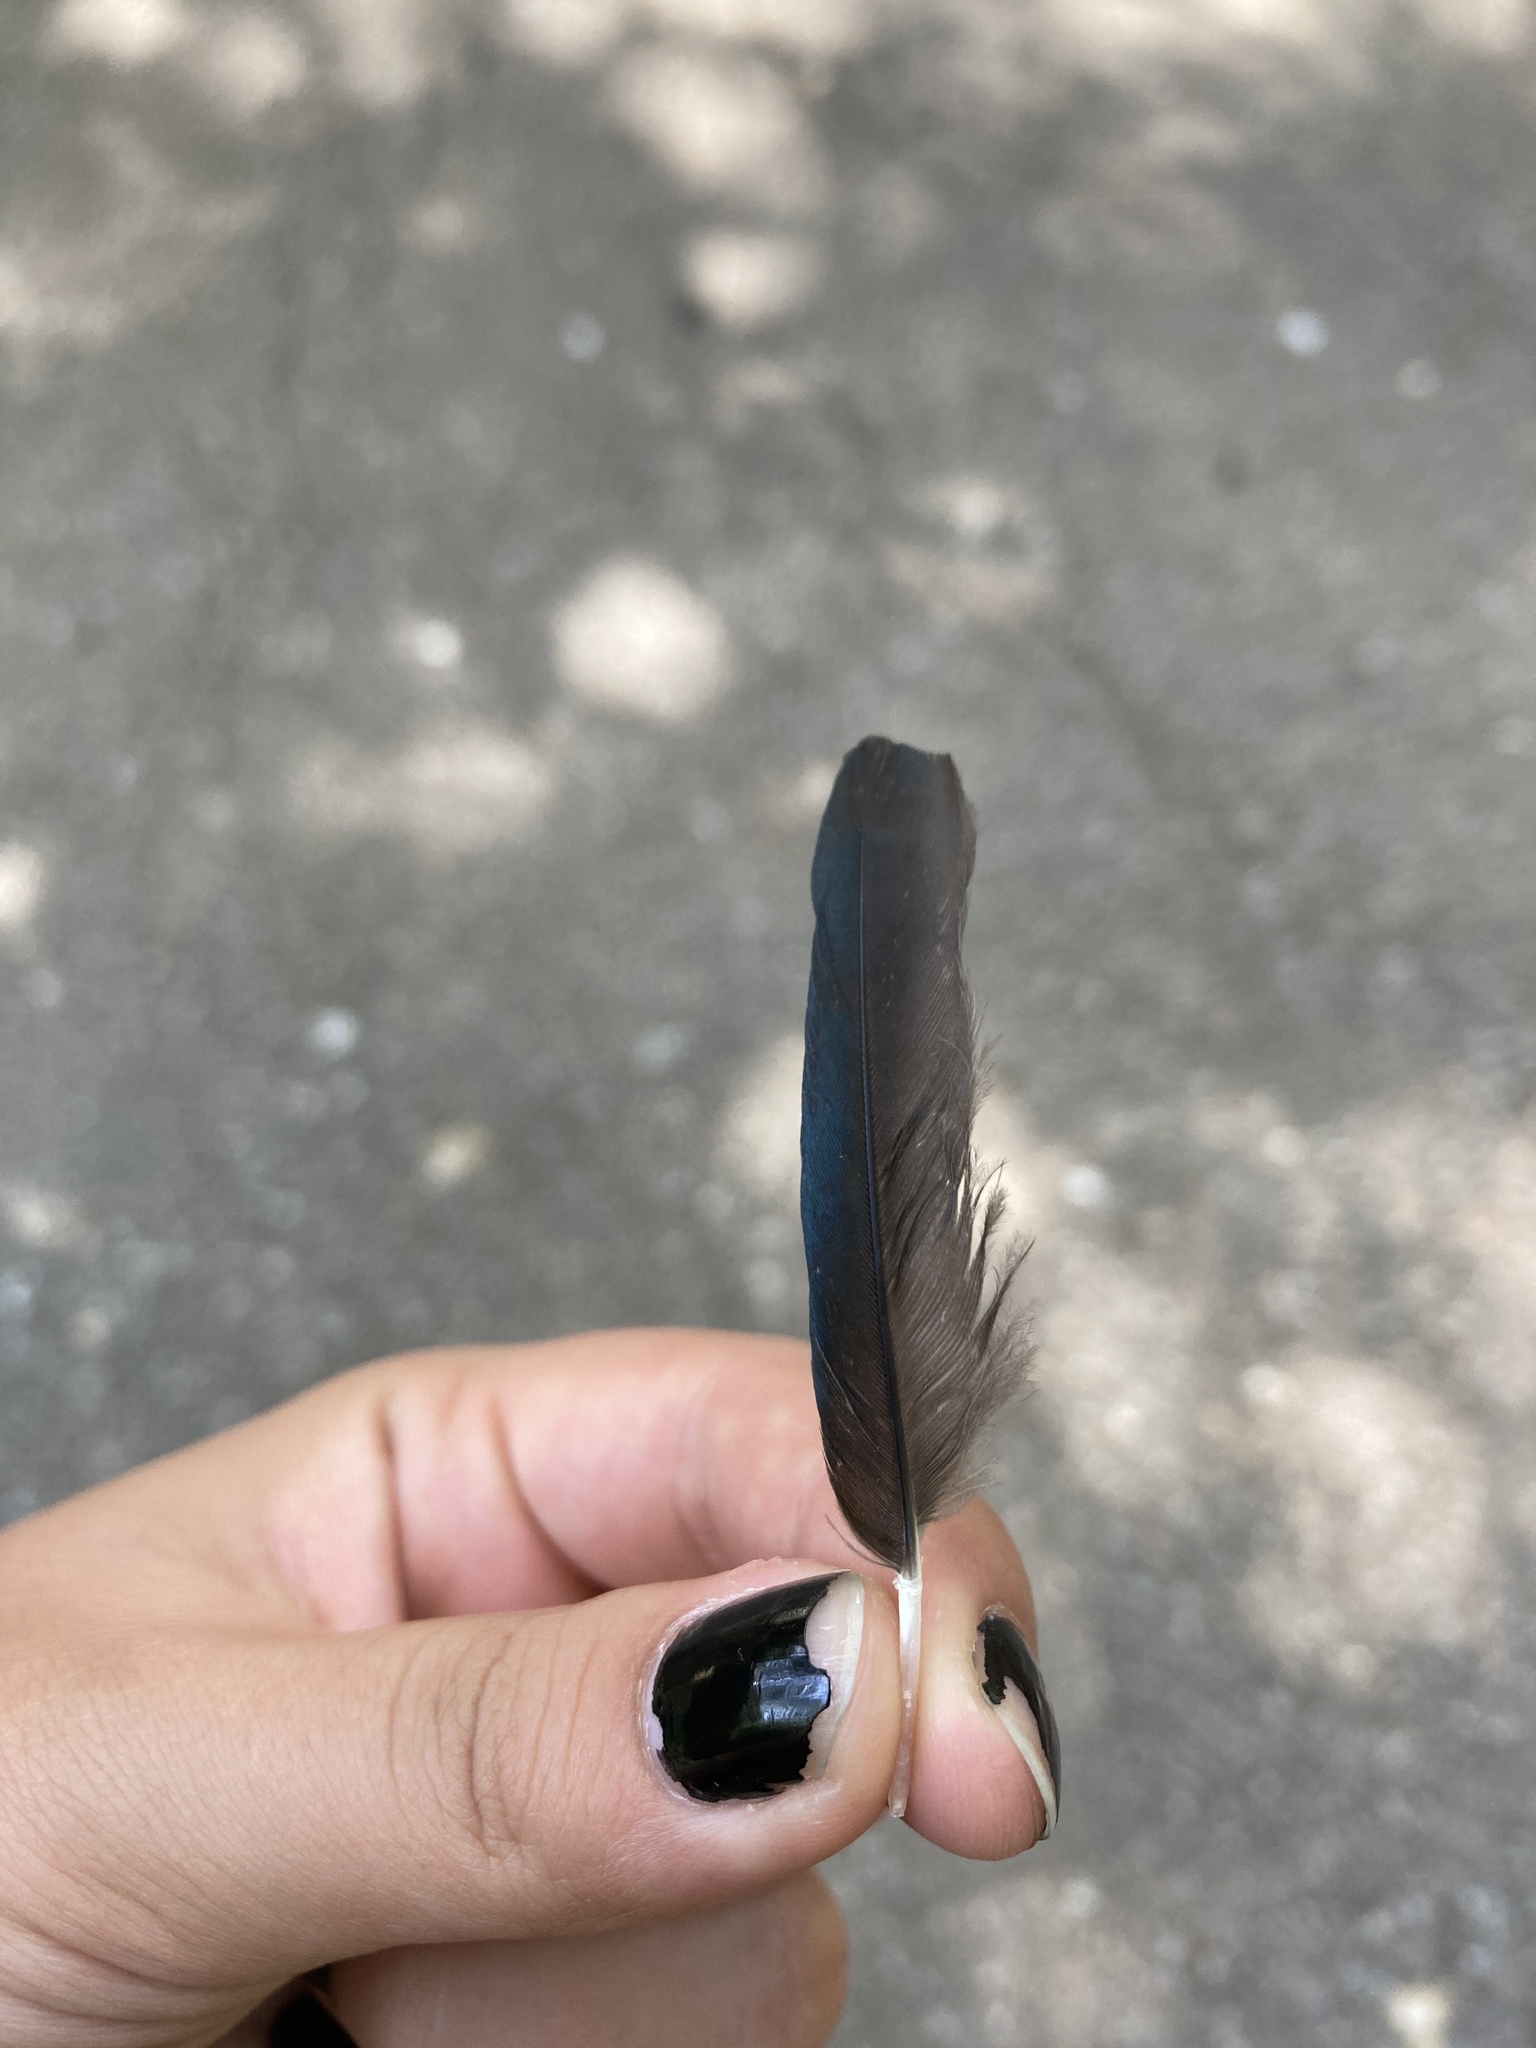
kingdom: Animalia
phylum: Chordata
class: Aves
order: Passeriformes
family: Corvidae
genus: Pica
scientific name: Pica pica
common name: Eurasian magpie
